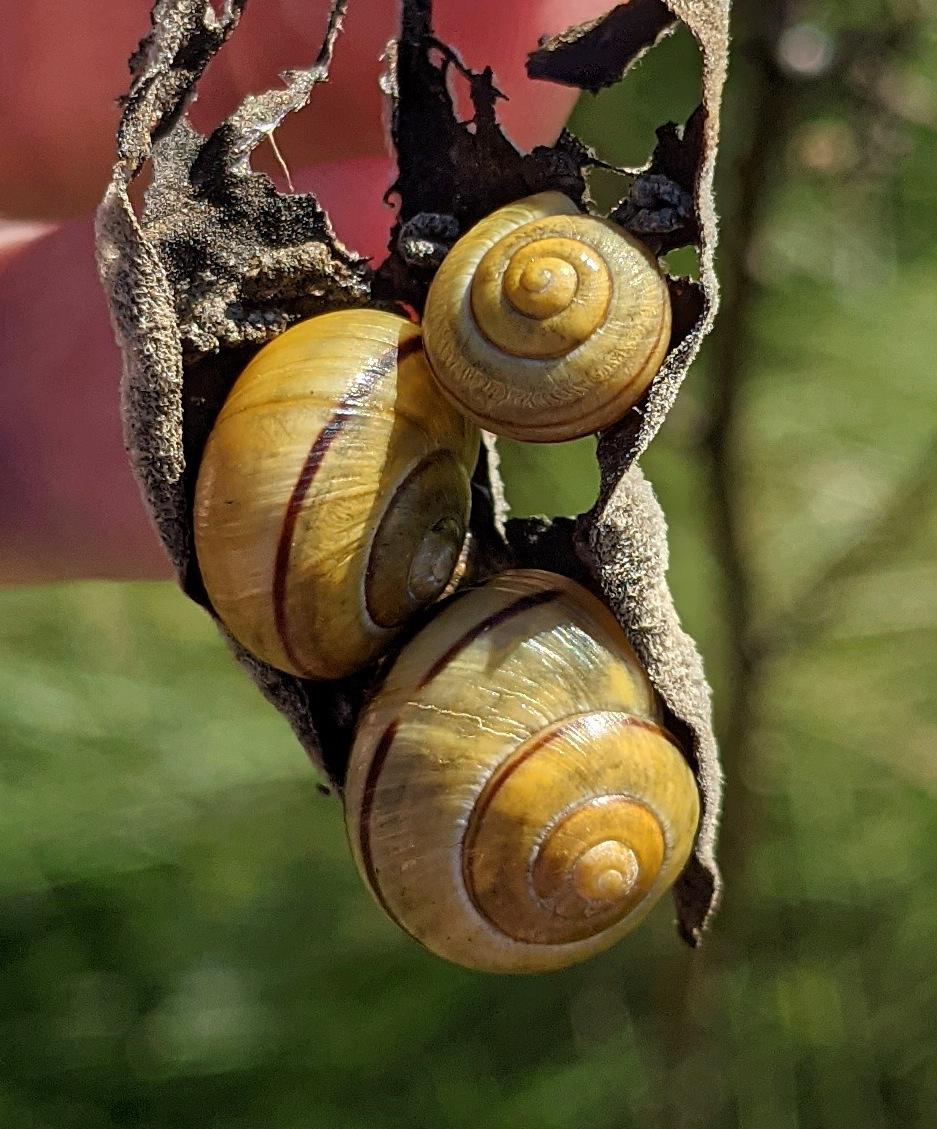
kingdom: Animalia
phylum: Mollusca
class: Gastropoda
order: Stylommatophora
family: Helicidae
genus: Cepaea
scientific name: Cepaea
